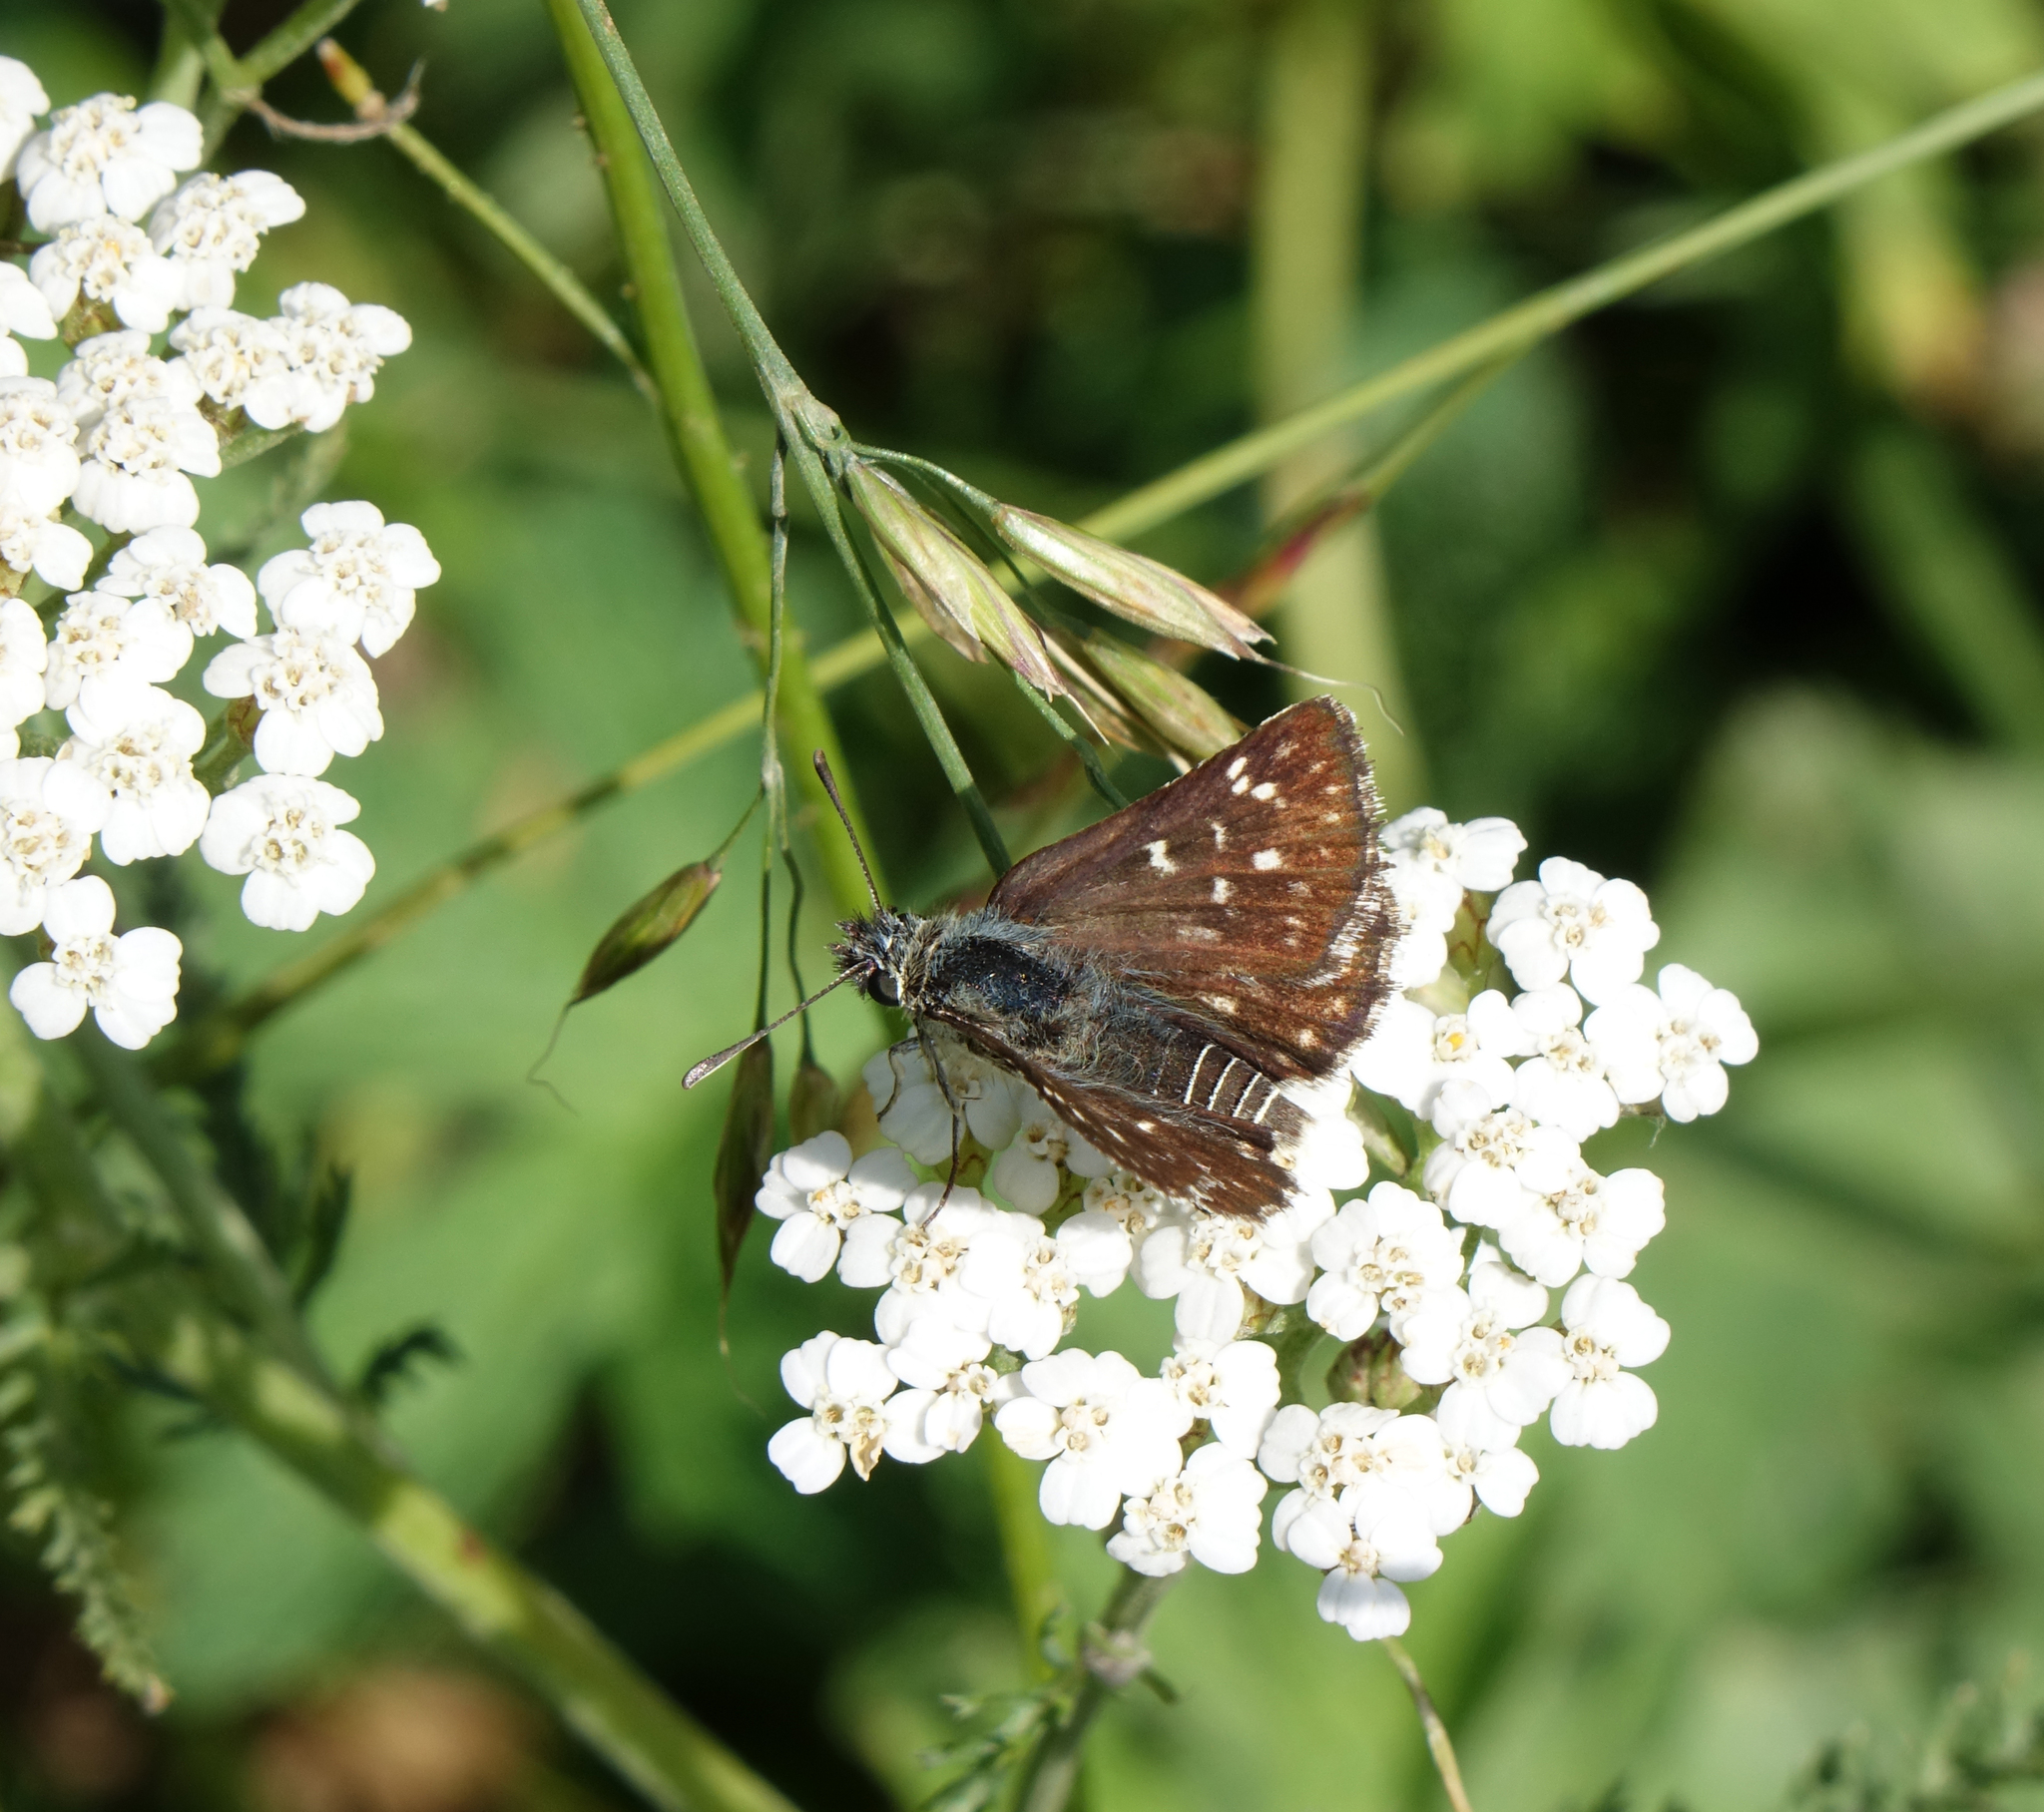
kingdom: Animalia
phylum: Arthropoda
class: Insecta
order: Lepidoptera
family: Hesperiidae
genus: Spialia
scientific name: Spialia sertorius
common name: Red underwing skipper
